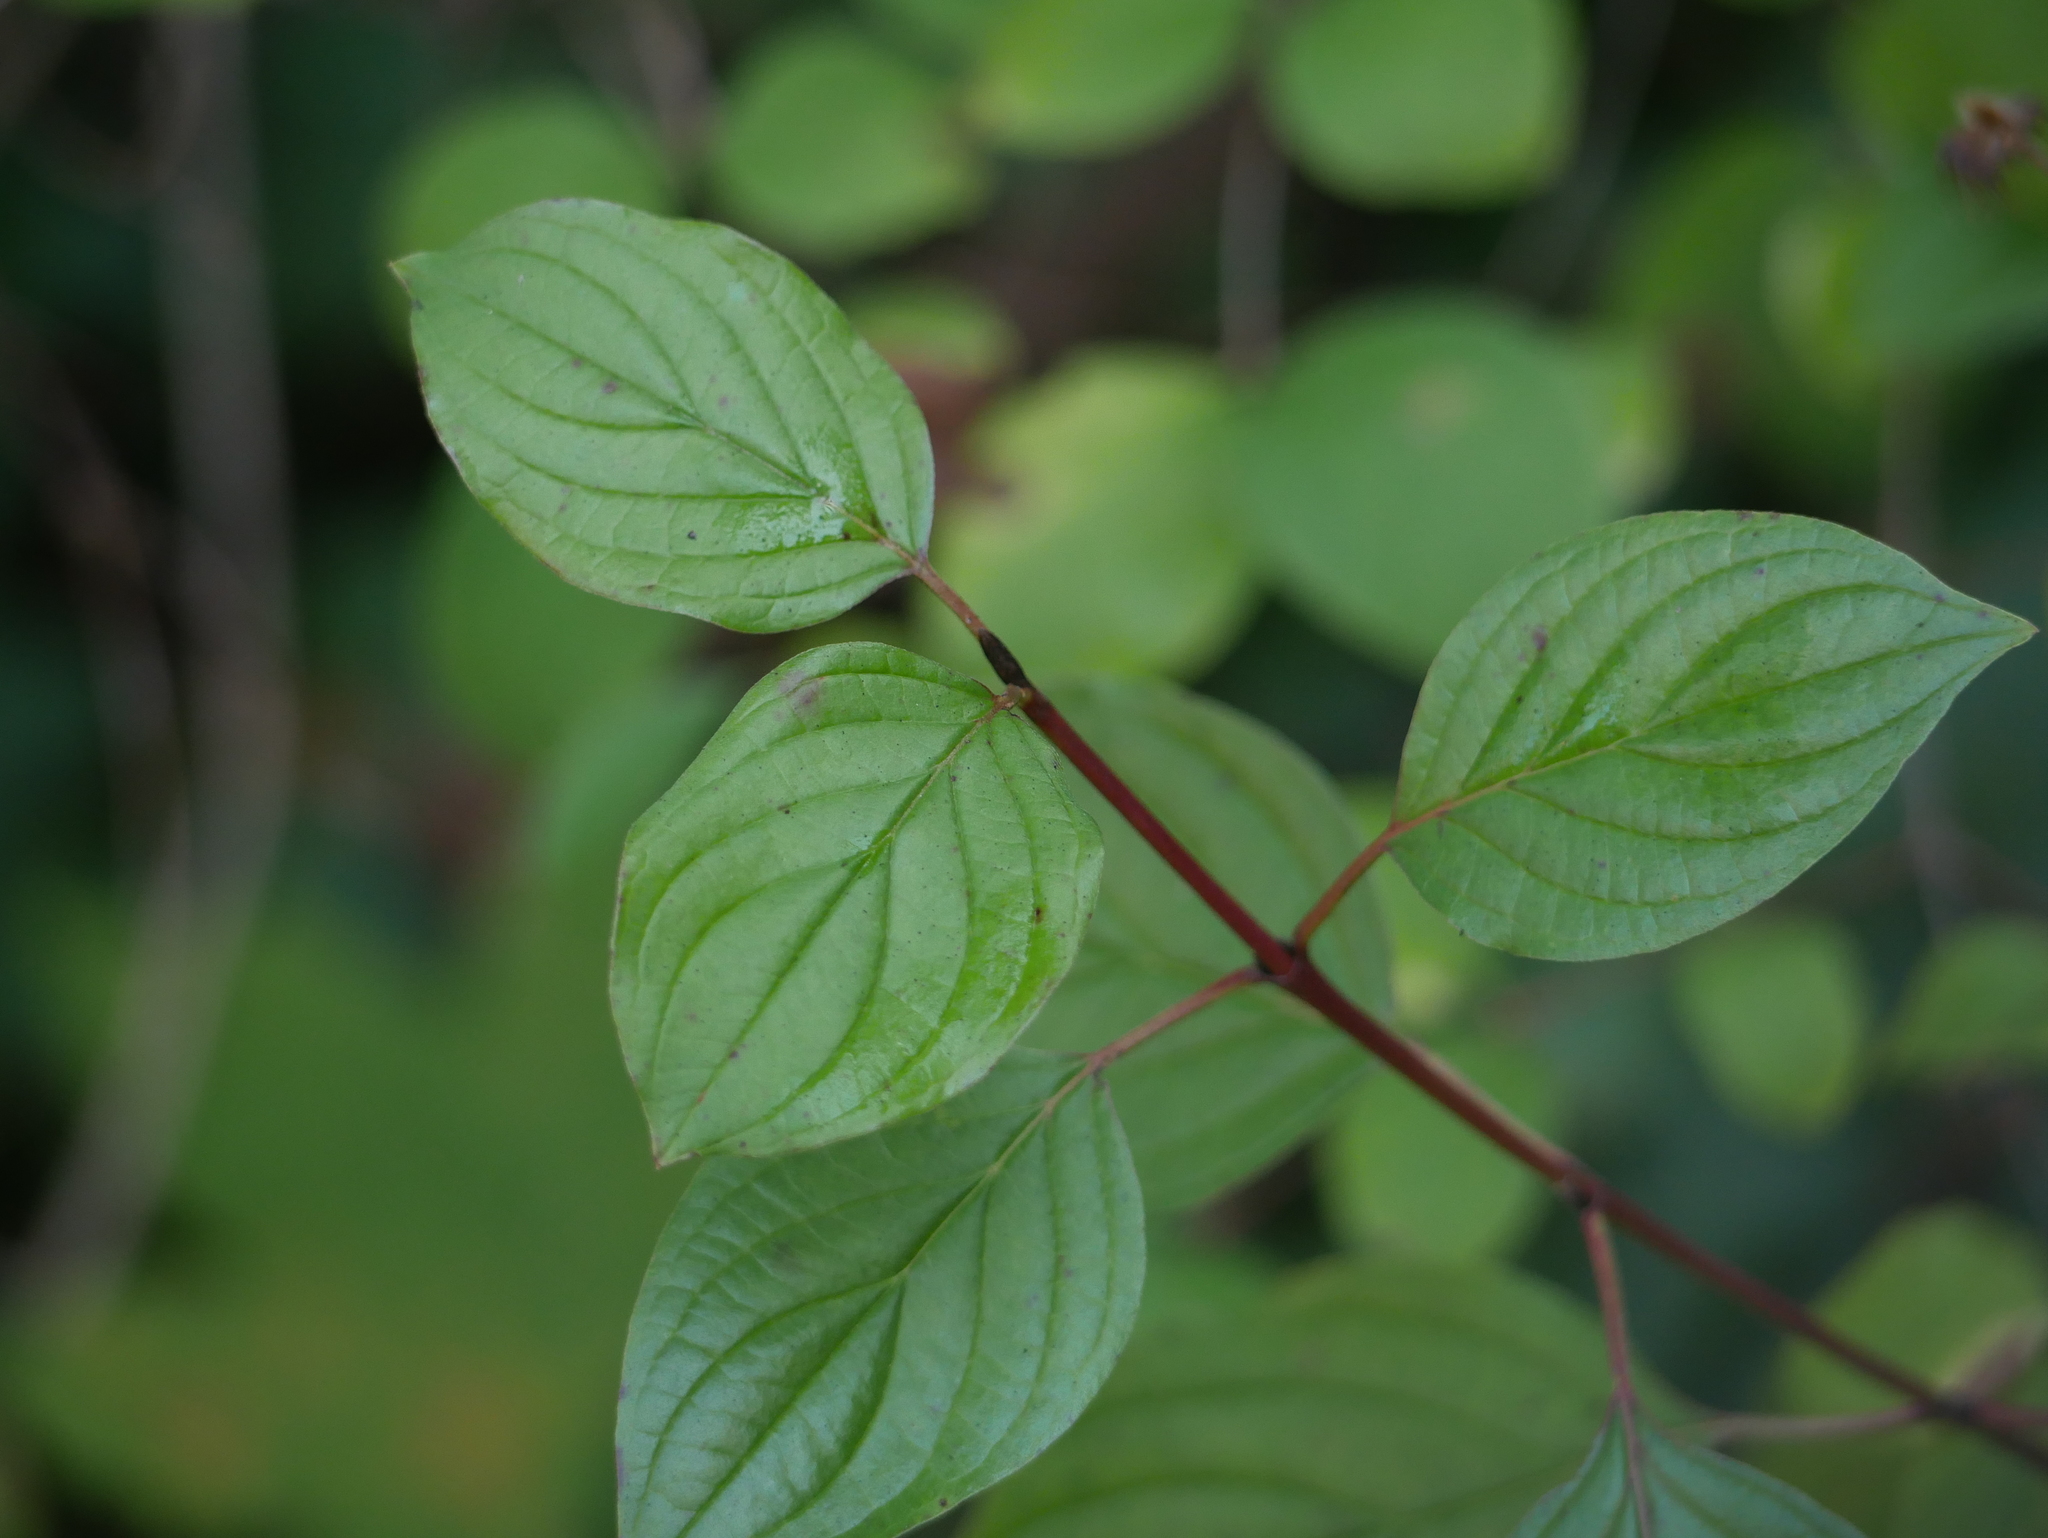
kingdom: Plantae
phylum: Tracheophyta
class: Magnoliopsida
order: Cornales
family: Cornaceae
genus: Cornus
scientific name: Cornus sanguinea
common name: Dogwood
